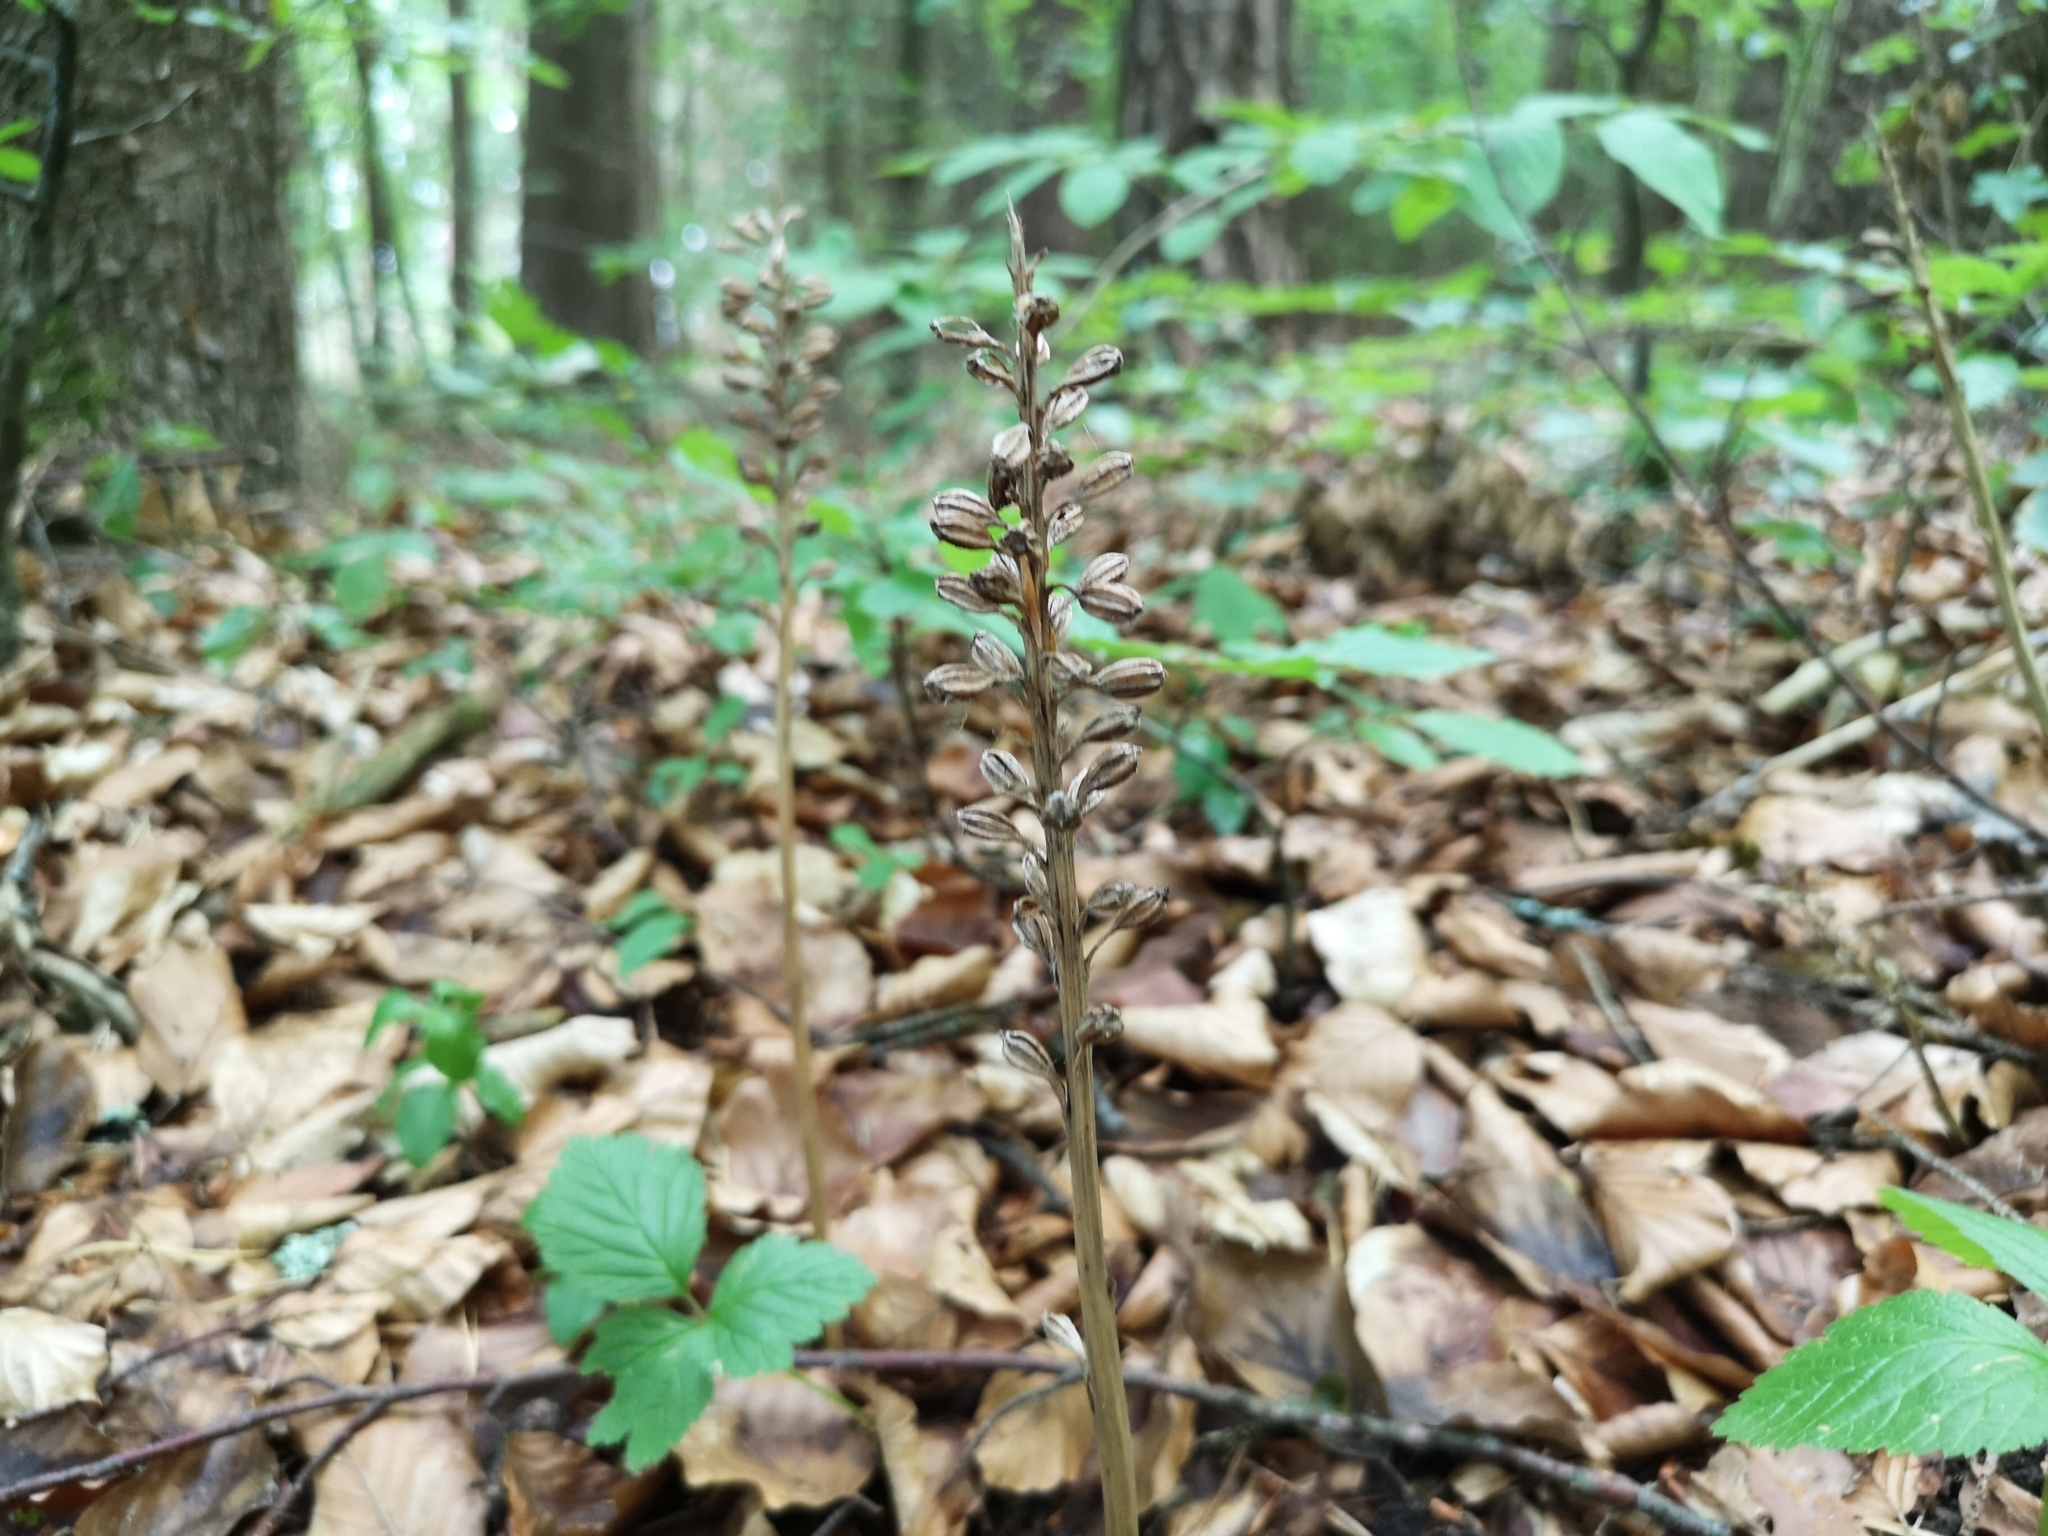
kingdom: Plantae
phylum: Tracheophyta
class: Liliopsida
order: Asparagales
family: Orchidaceae
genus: Neottia
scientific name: Neottia nidus-avis
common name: Bird's-nest orchid
